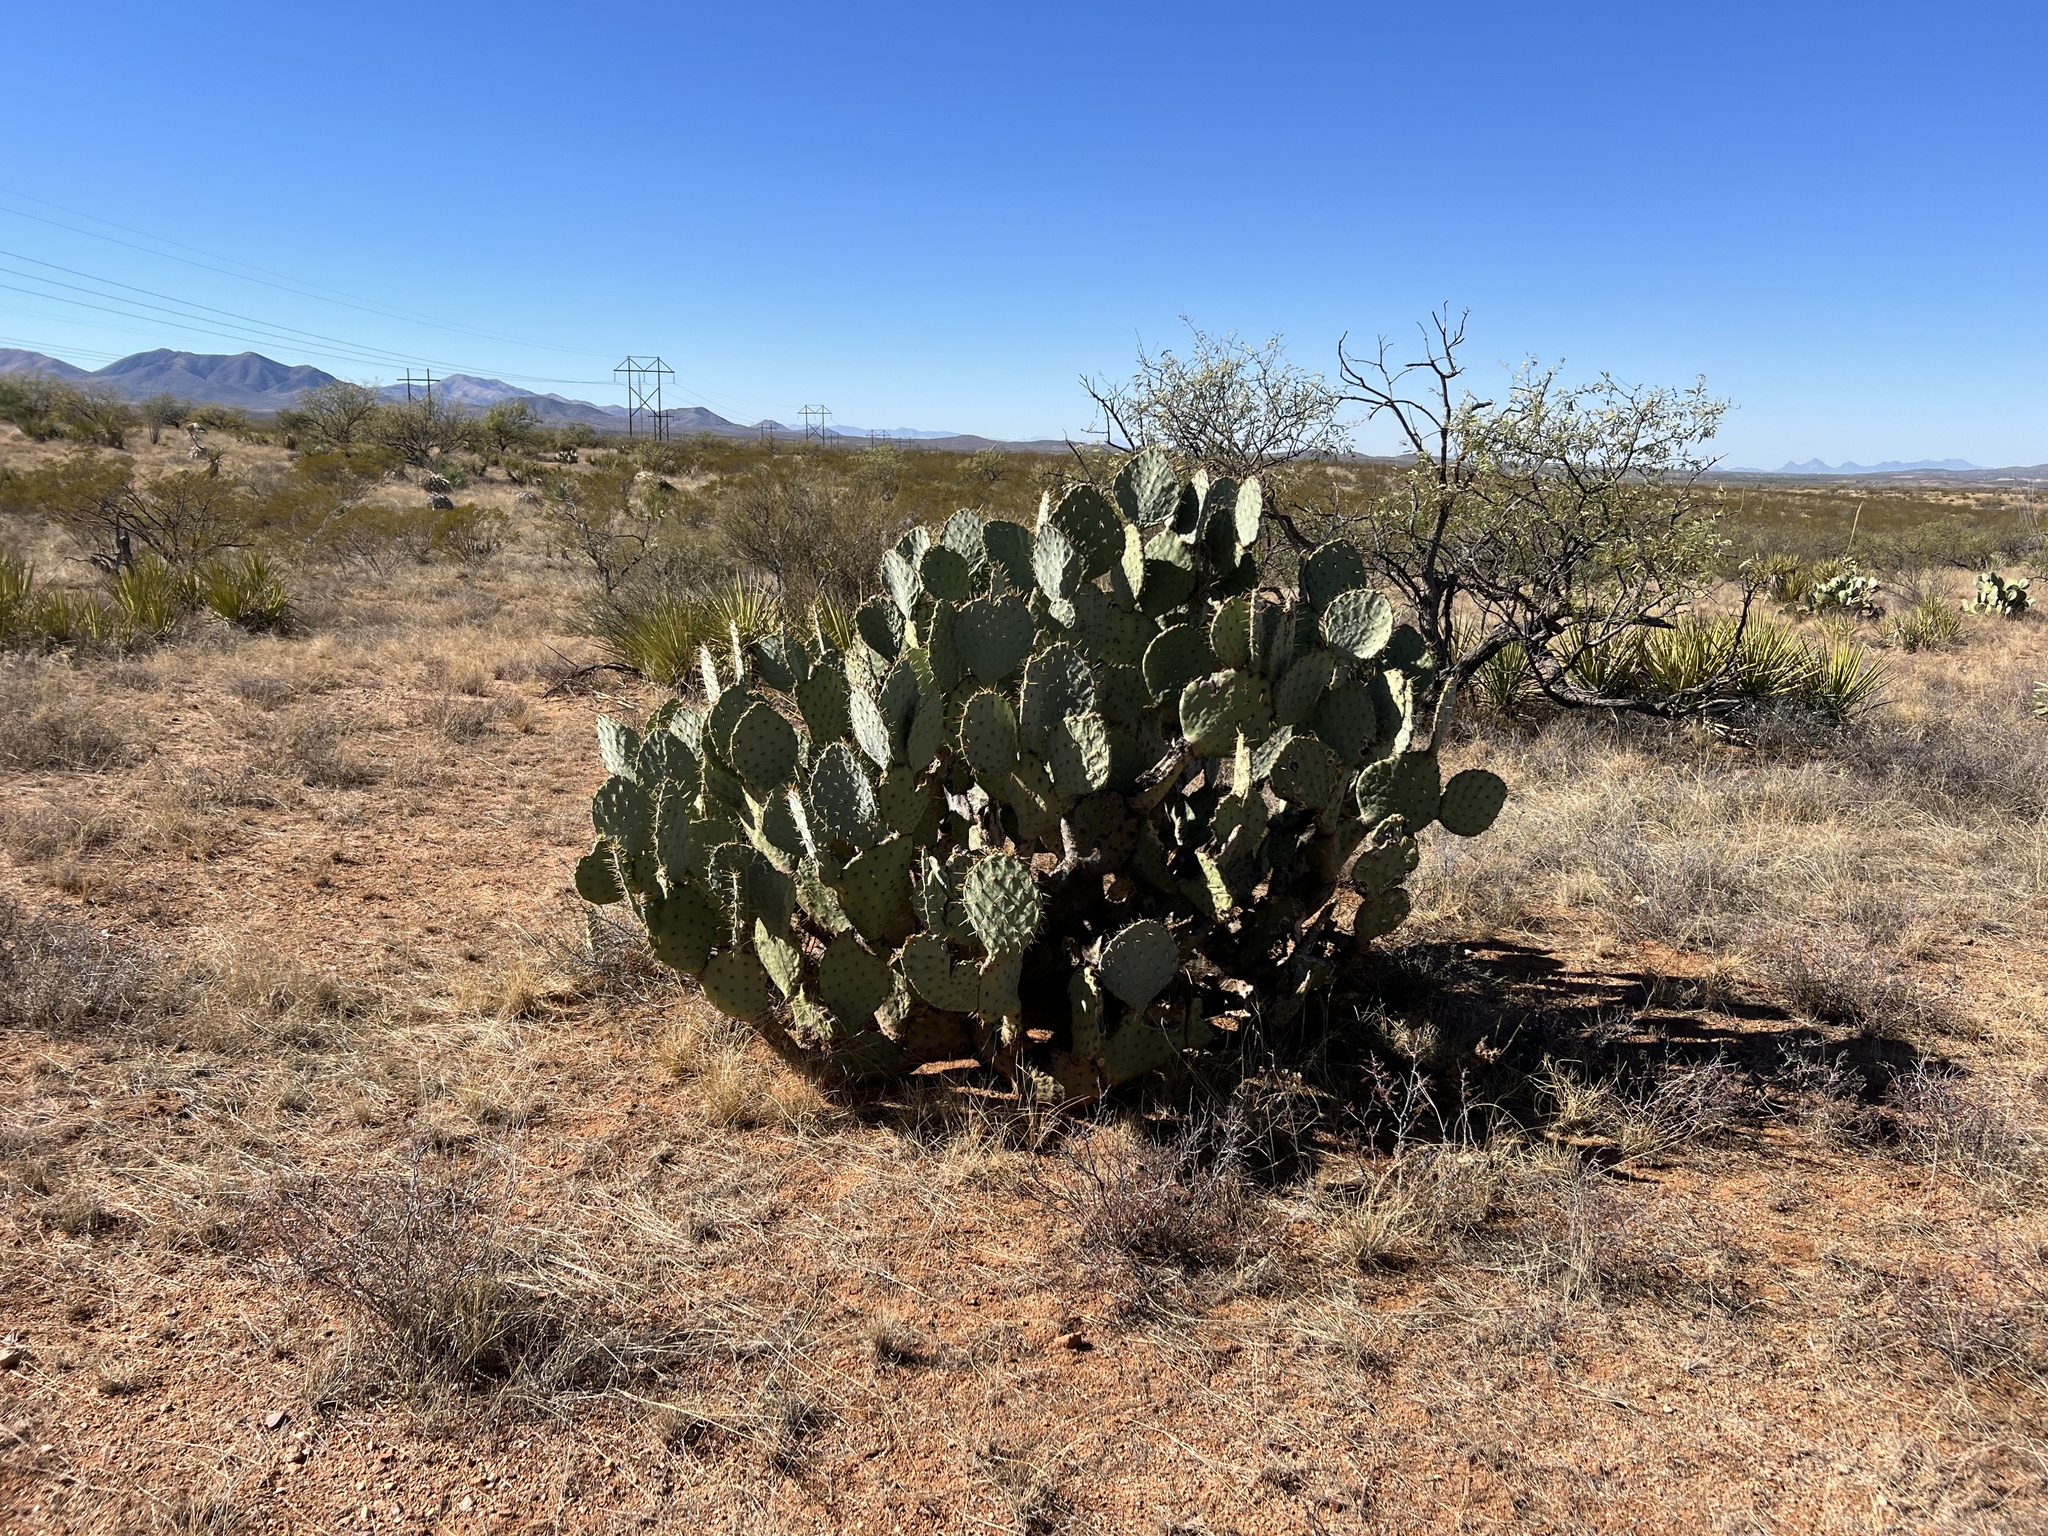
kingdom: Plantae
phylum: Tracheophyta
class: Magnoliopsida
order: Caryophyllales
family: Cactaceae
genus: Opuntia
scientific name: Opuntia engelmannii
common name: Cactus-apple
